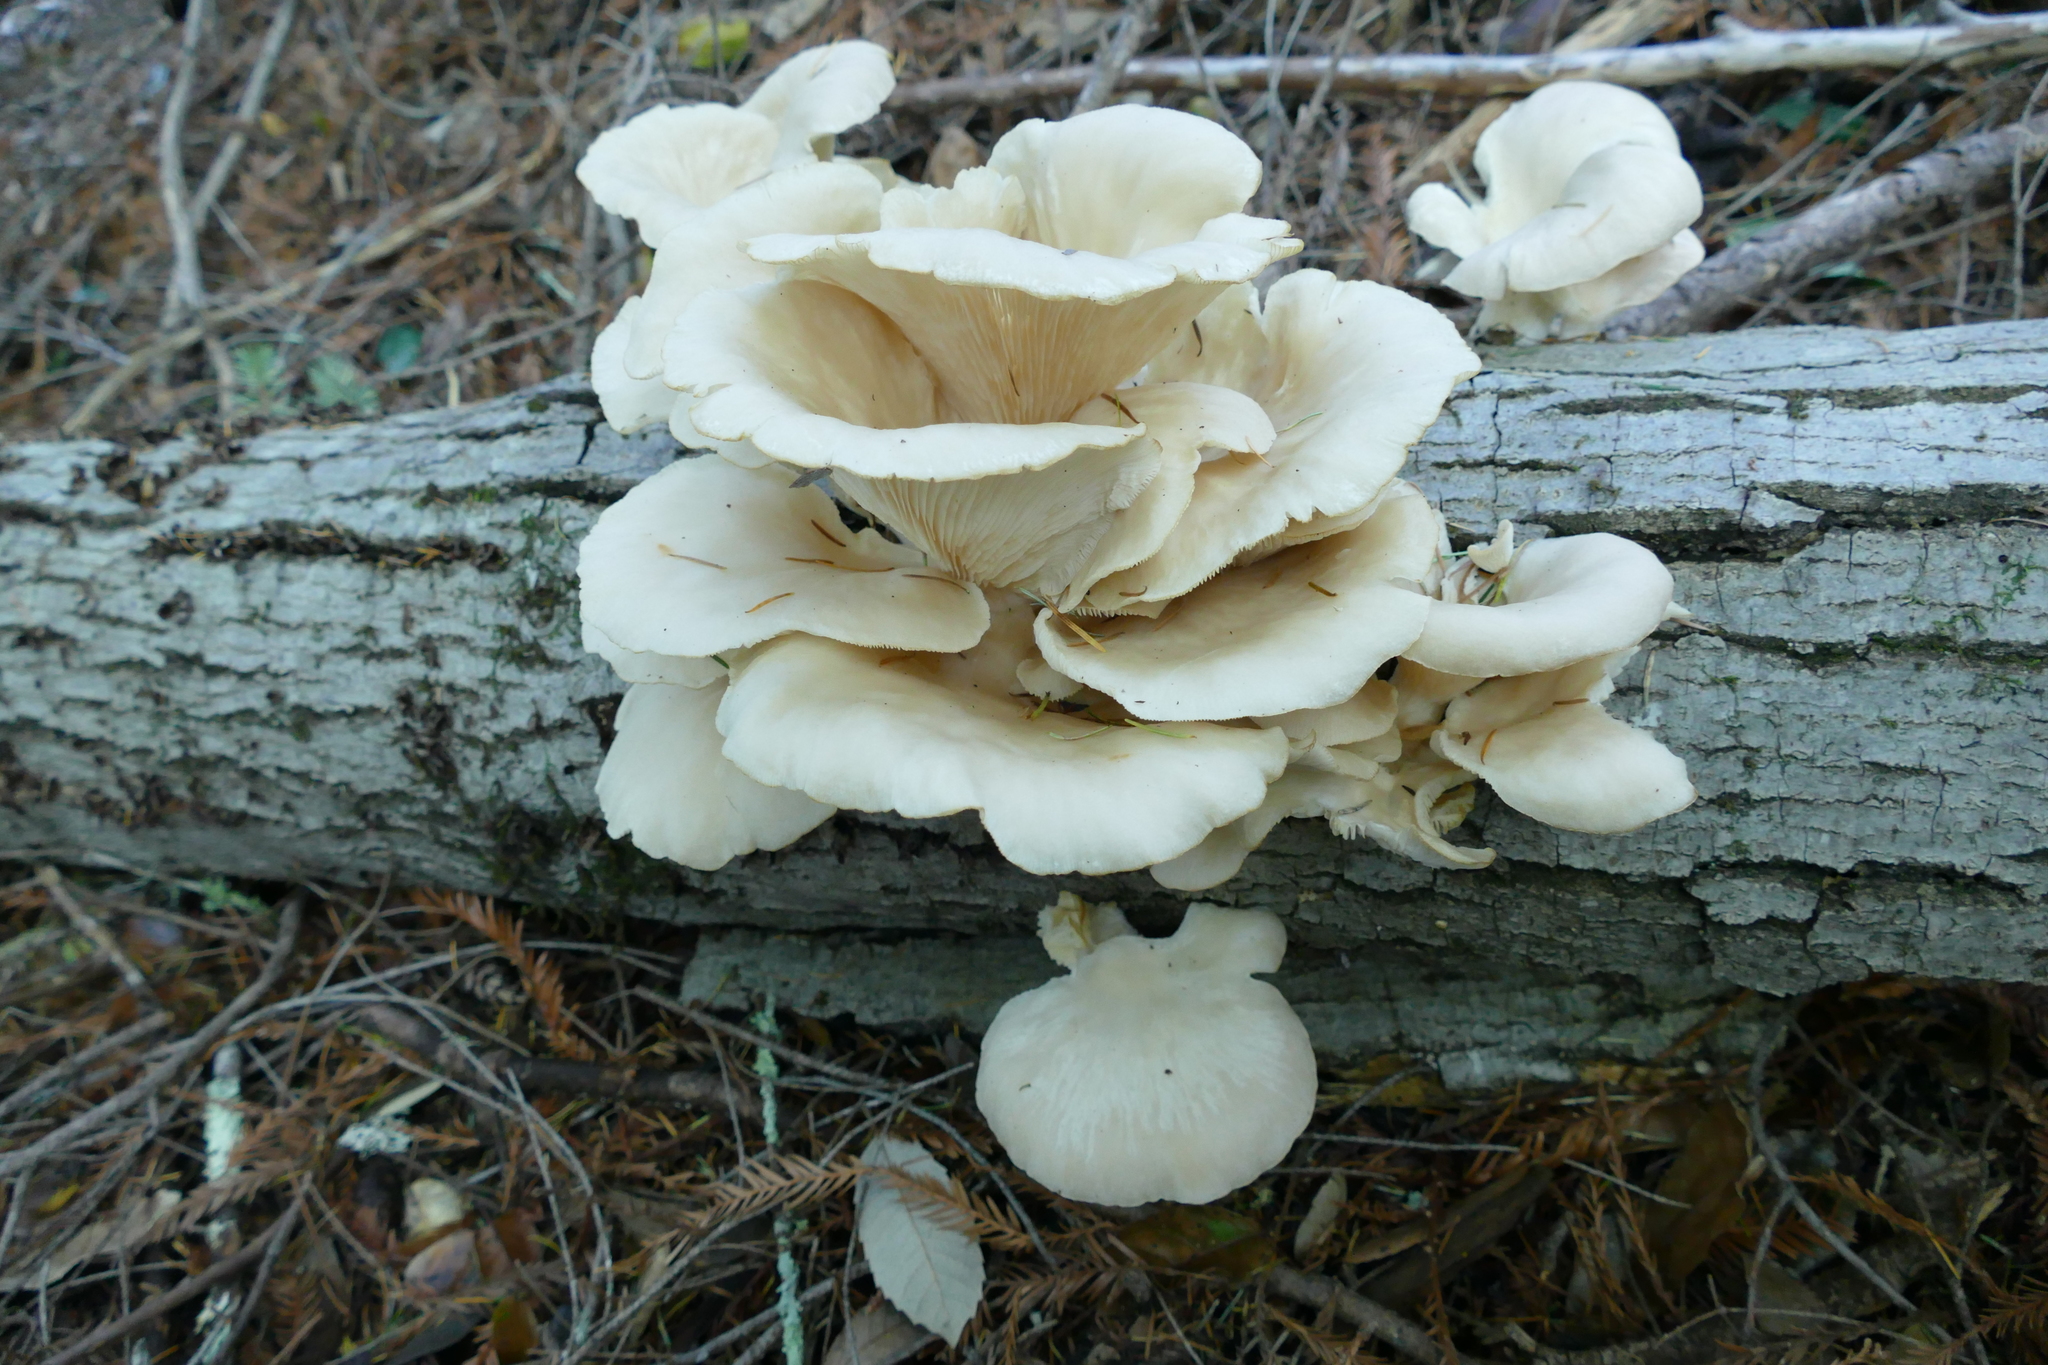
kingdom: Fungi
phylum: Basidiomycota
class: Agaricomycetes
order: Agaricales
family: Pleurotaceae
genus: Pleurotus
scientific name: Pleurotus pulmonarius
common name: Pale oyster
